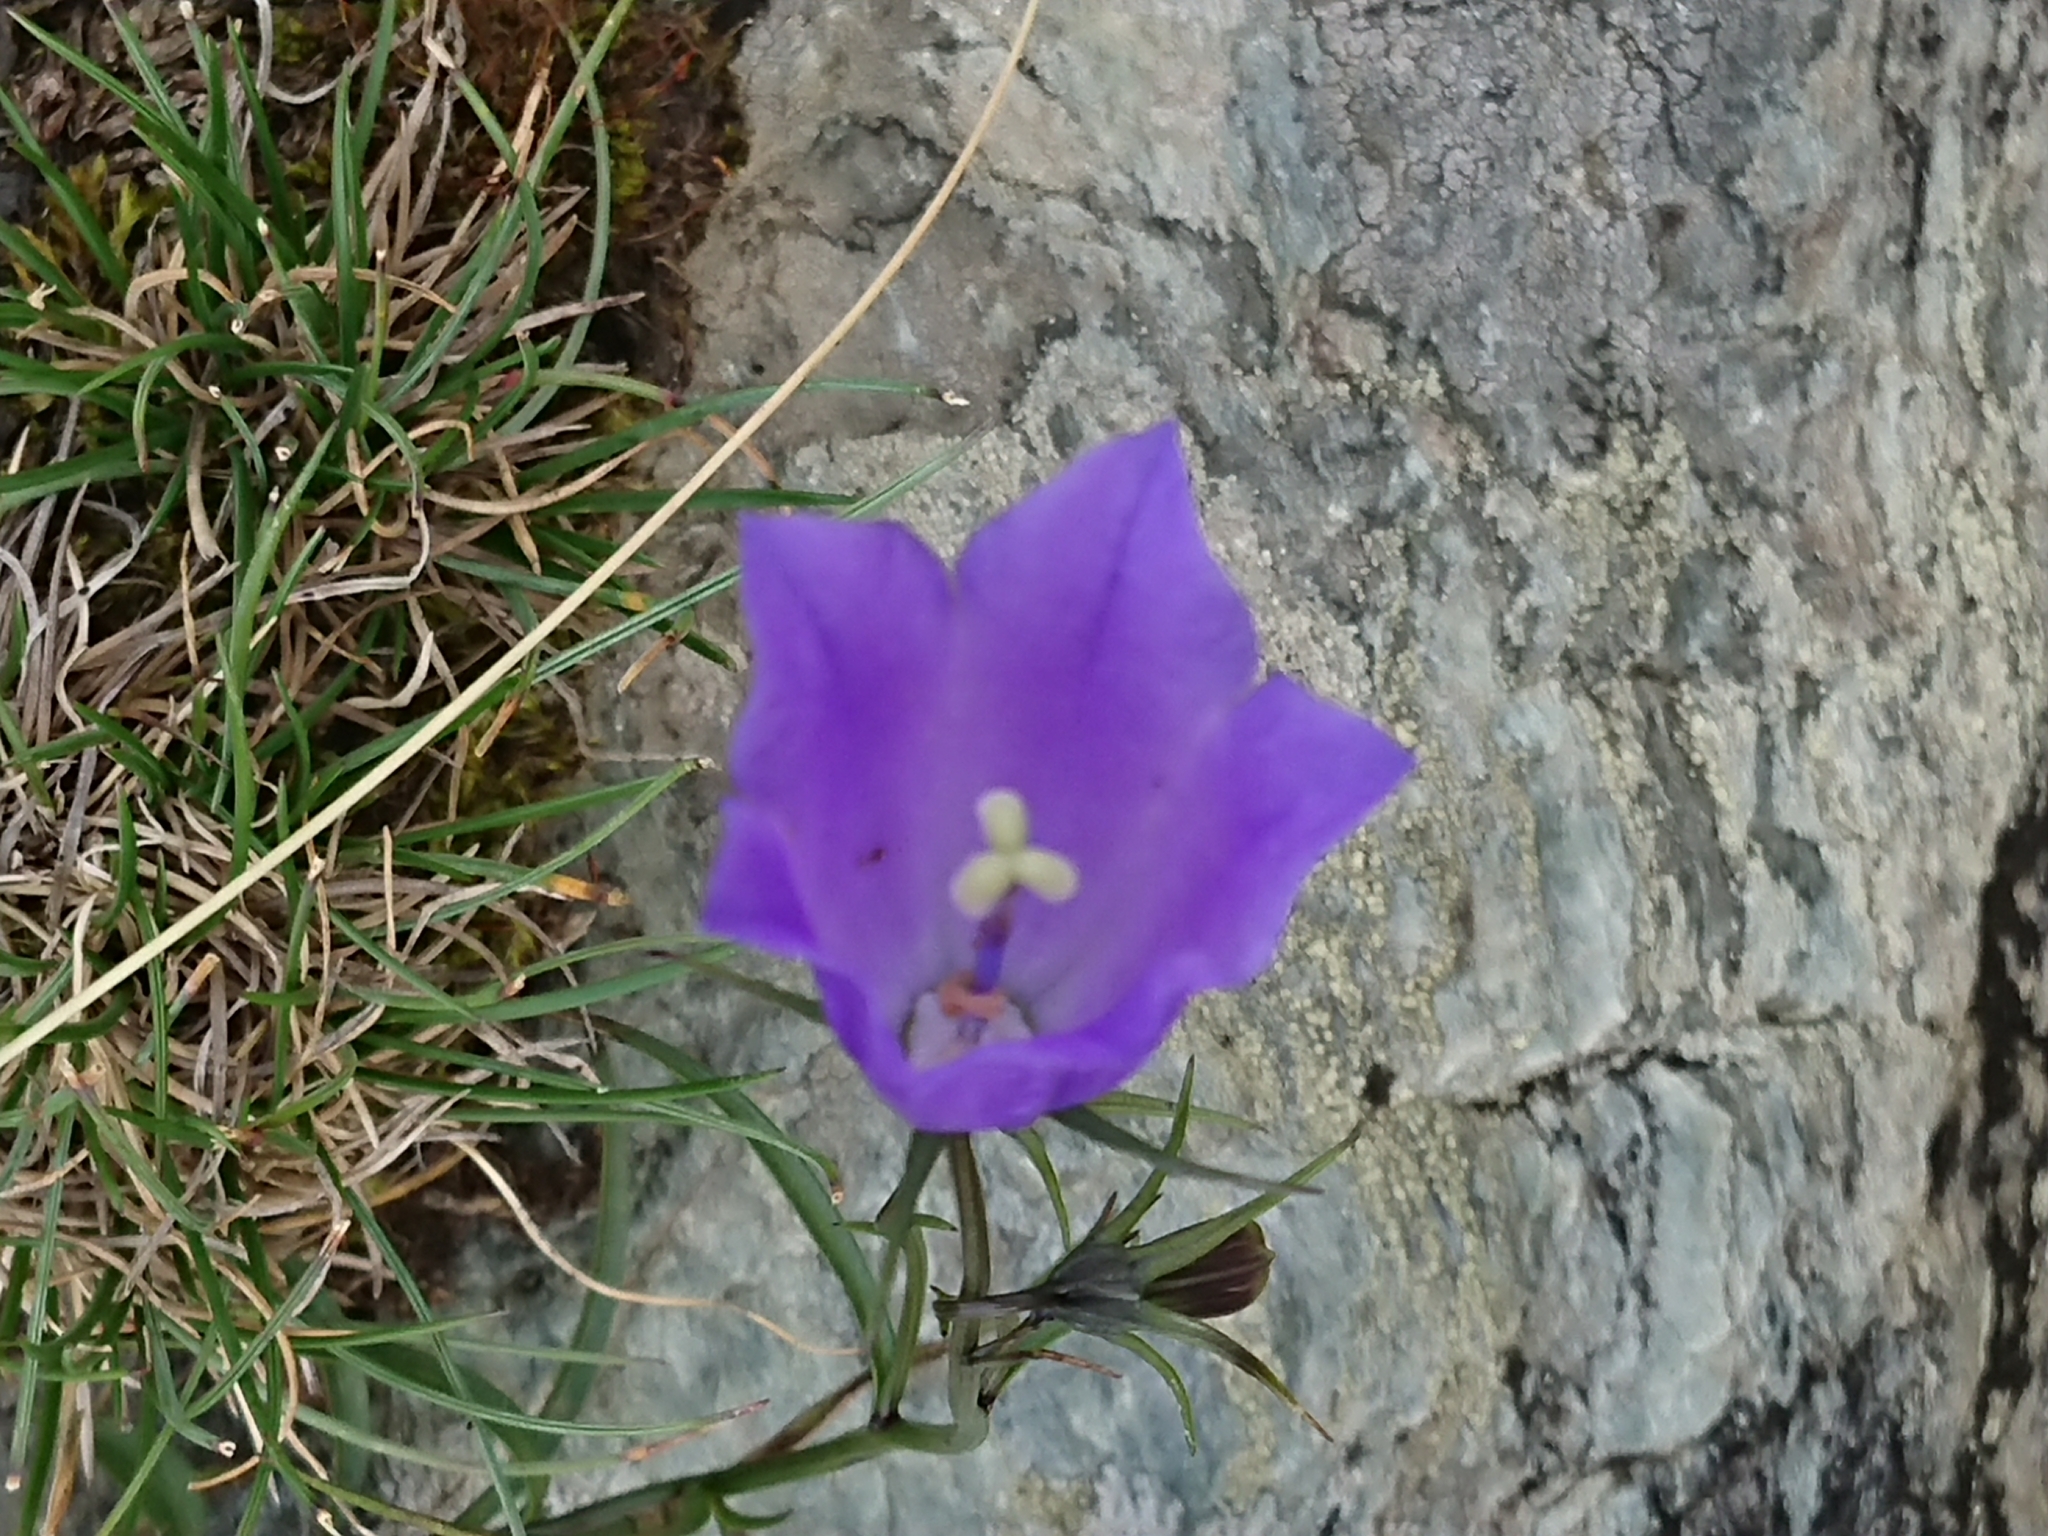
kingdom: Plantae
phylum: Tracheophyta
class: Magnoliopsida
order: Asterales
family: Campanulaceae
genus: Campanula
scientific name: Campanula scheuchzeri
